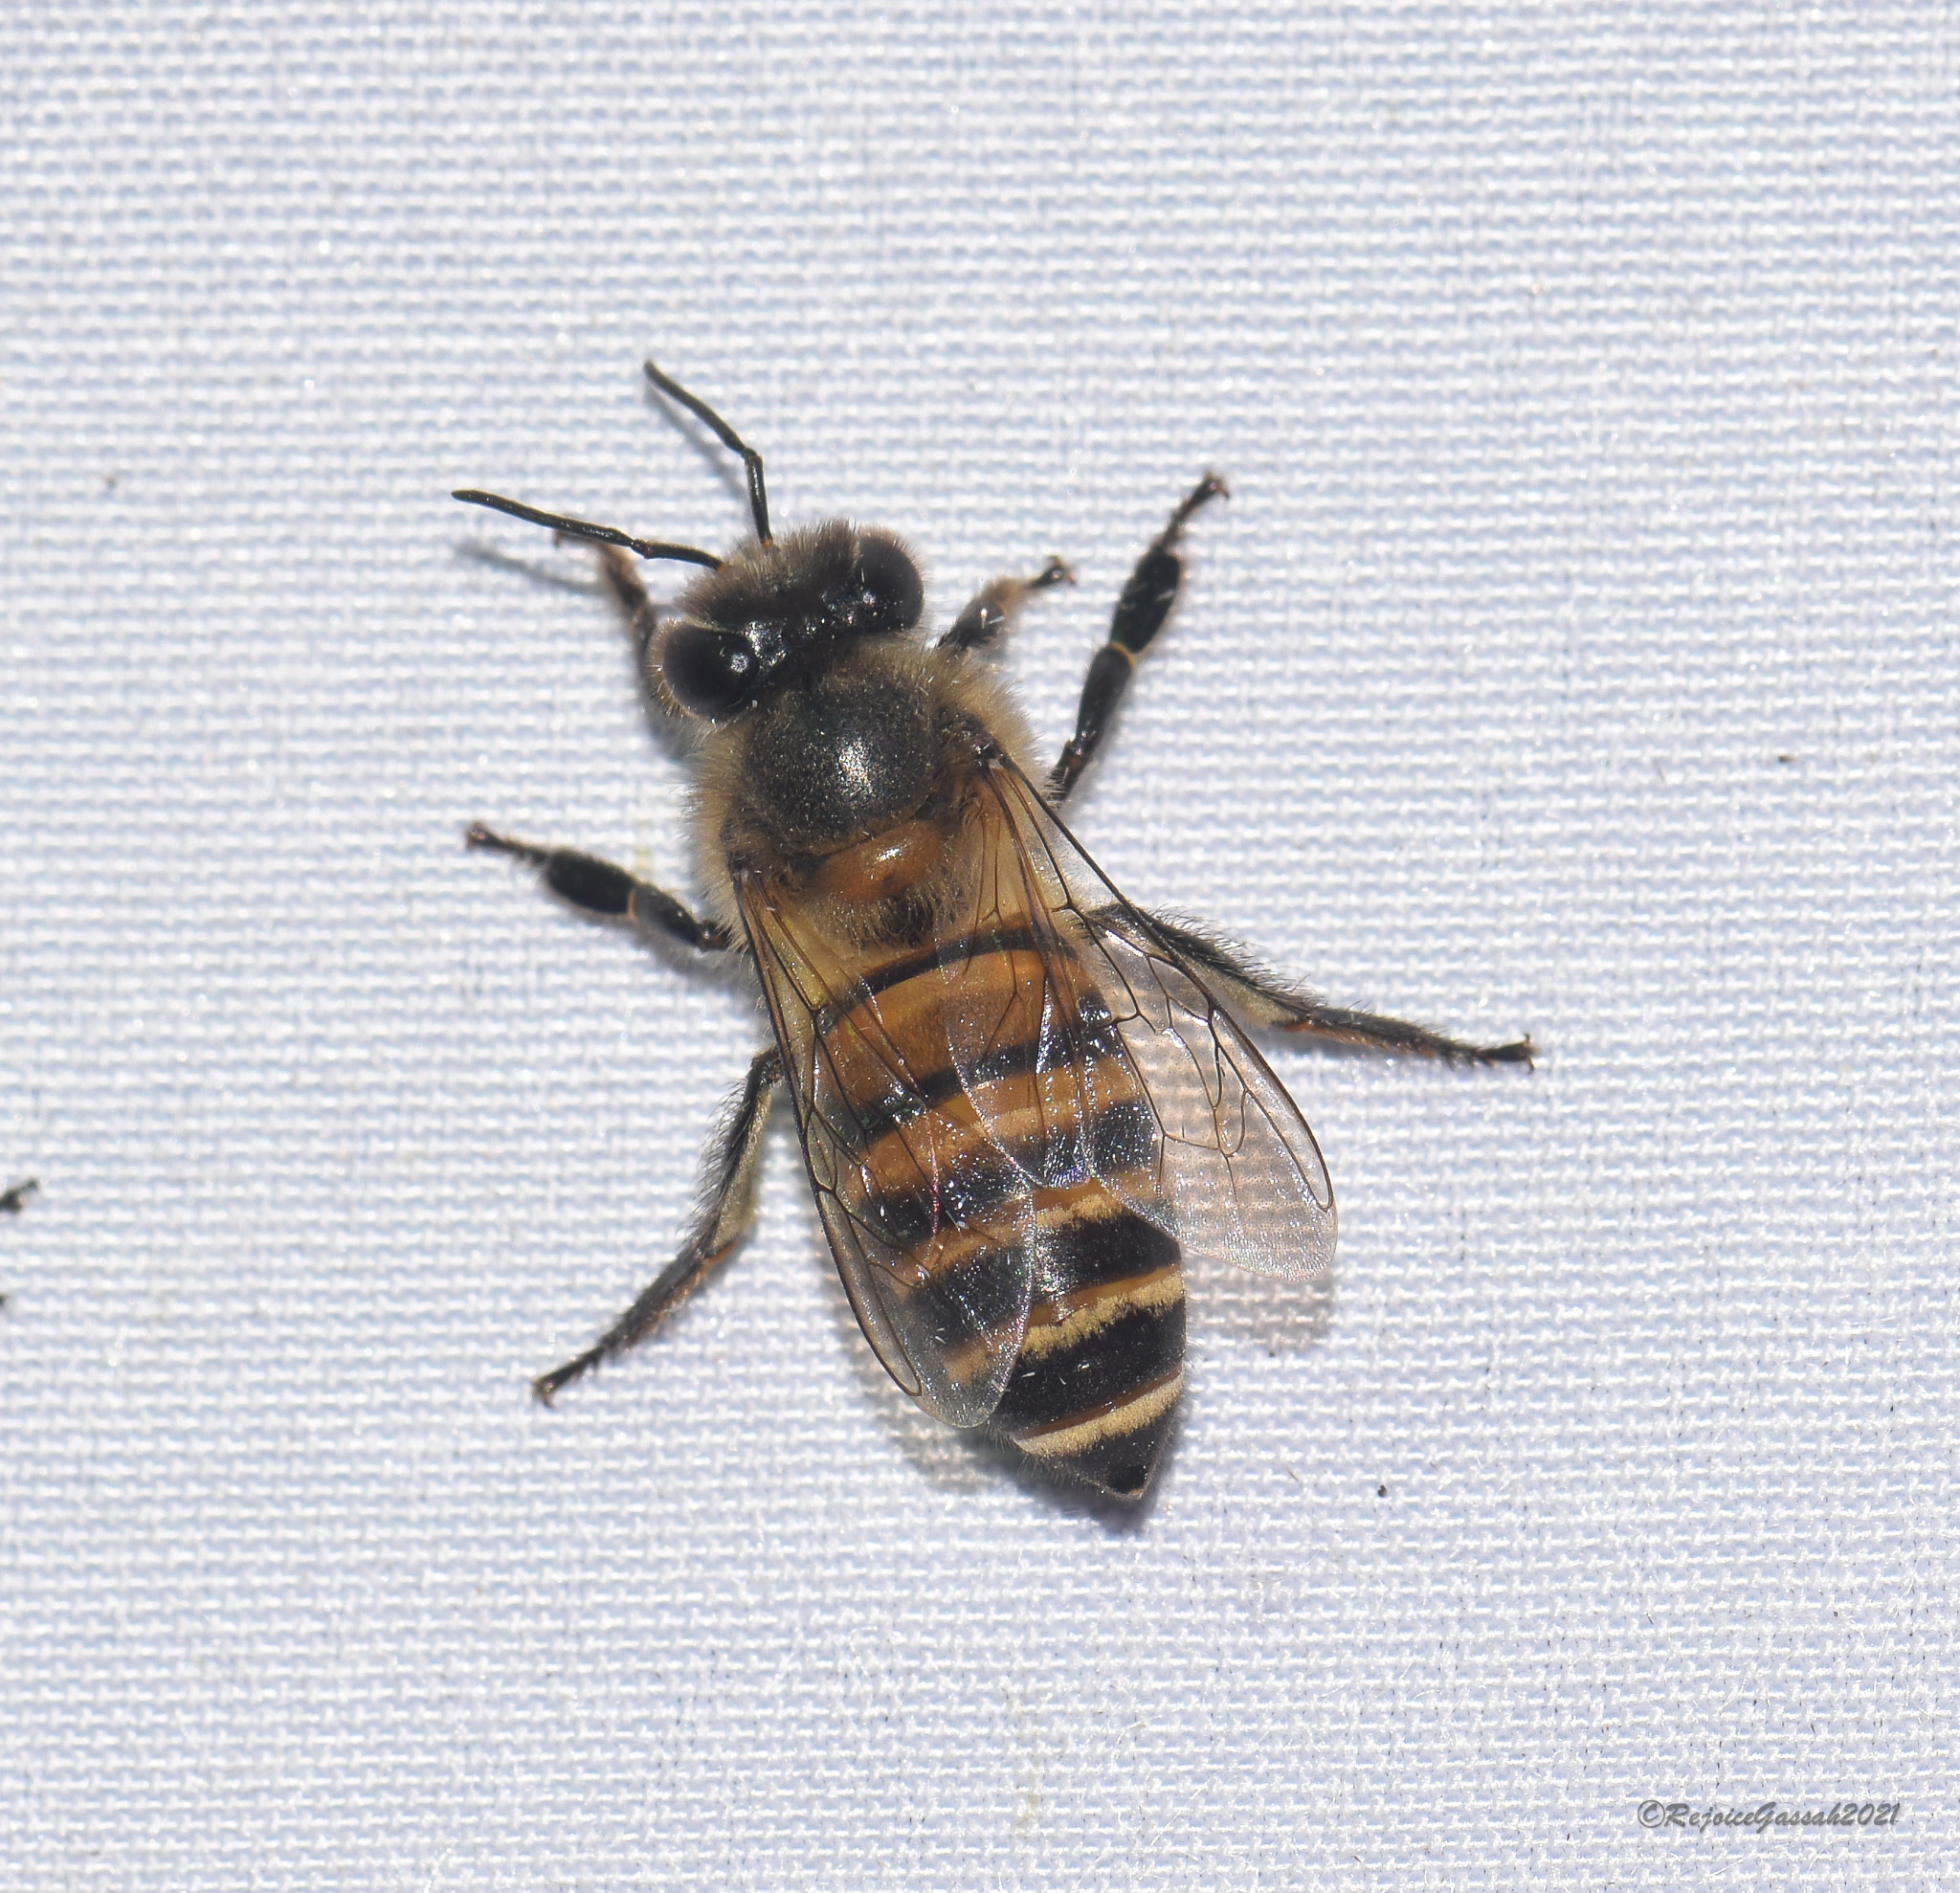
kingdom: Animalia
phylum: Arthropoda
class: Insecta
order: Hymenoptera
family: Apidae
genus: Apis
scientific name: Apis cerana
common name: Honey bee
